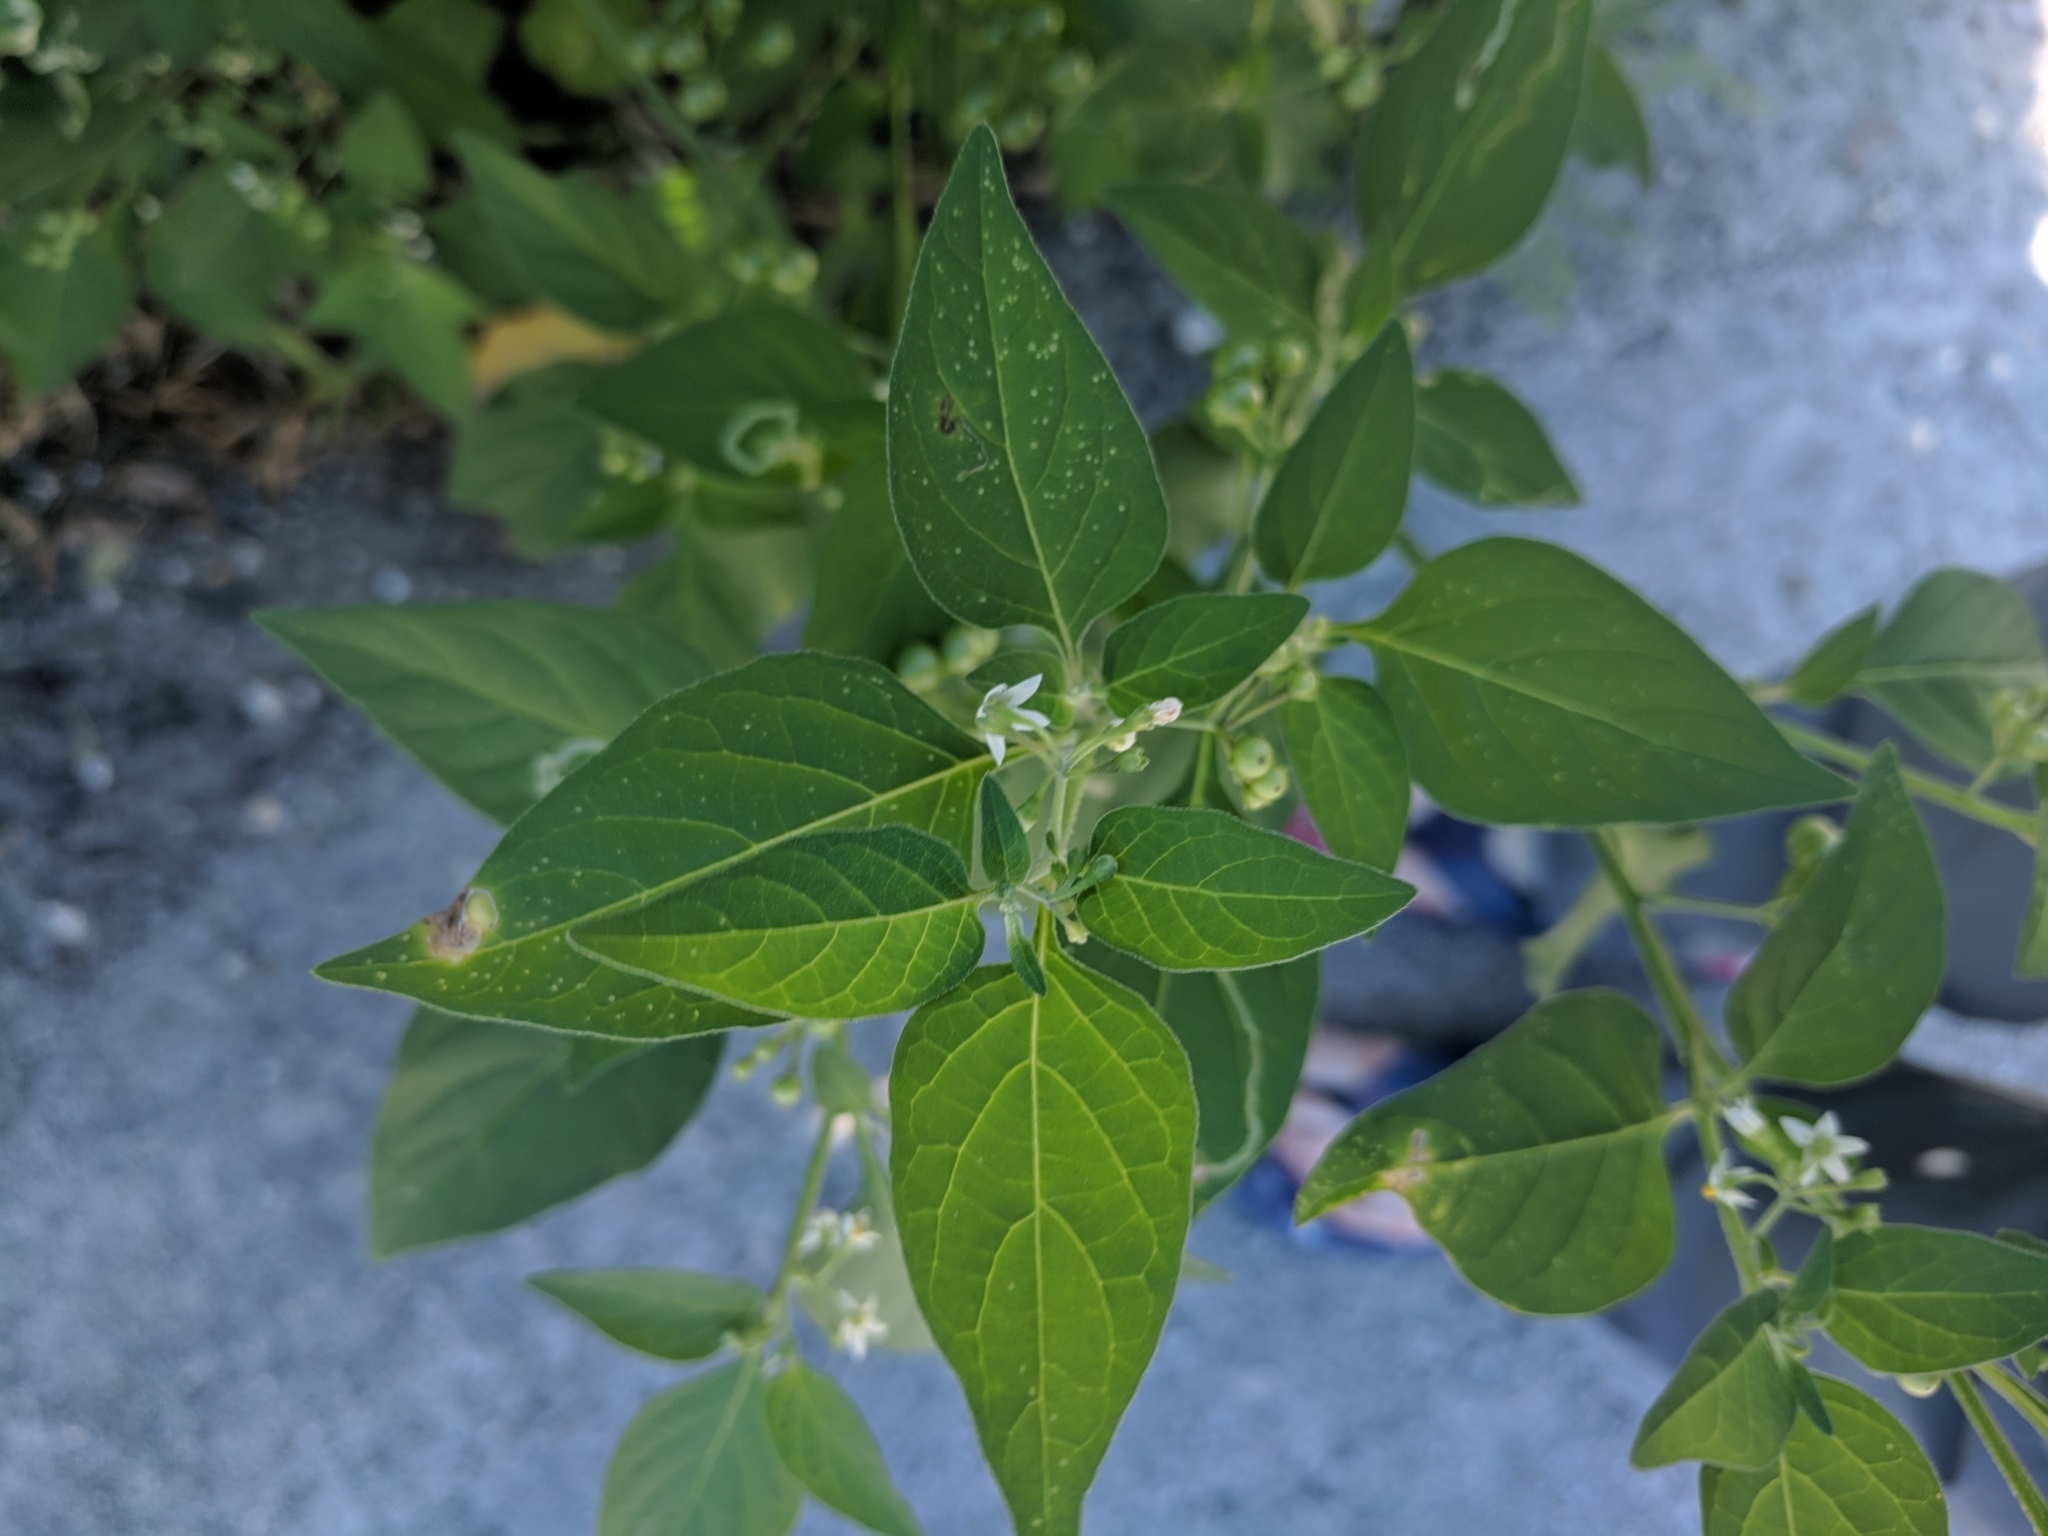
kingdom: Plantae
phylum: Tracheophyta
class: Magnoliopsida
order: Solanales
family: Solanaceae
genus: Solanum
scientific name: Solanum americanum
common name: American black nightshade
